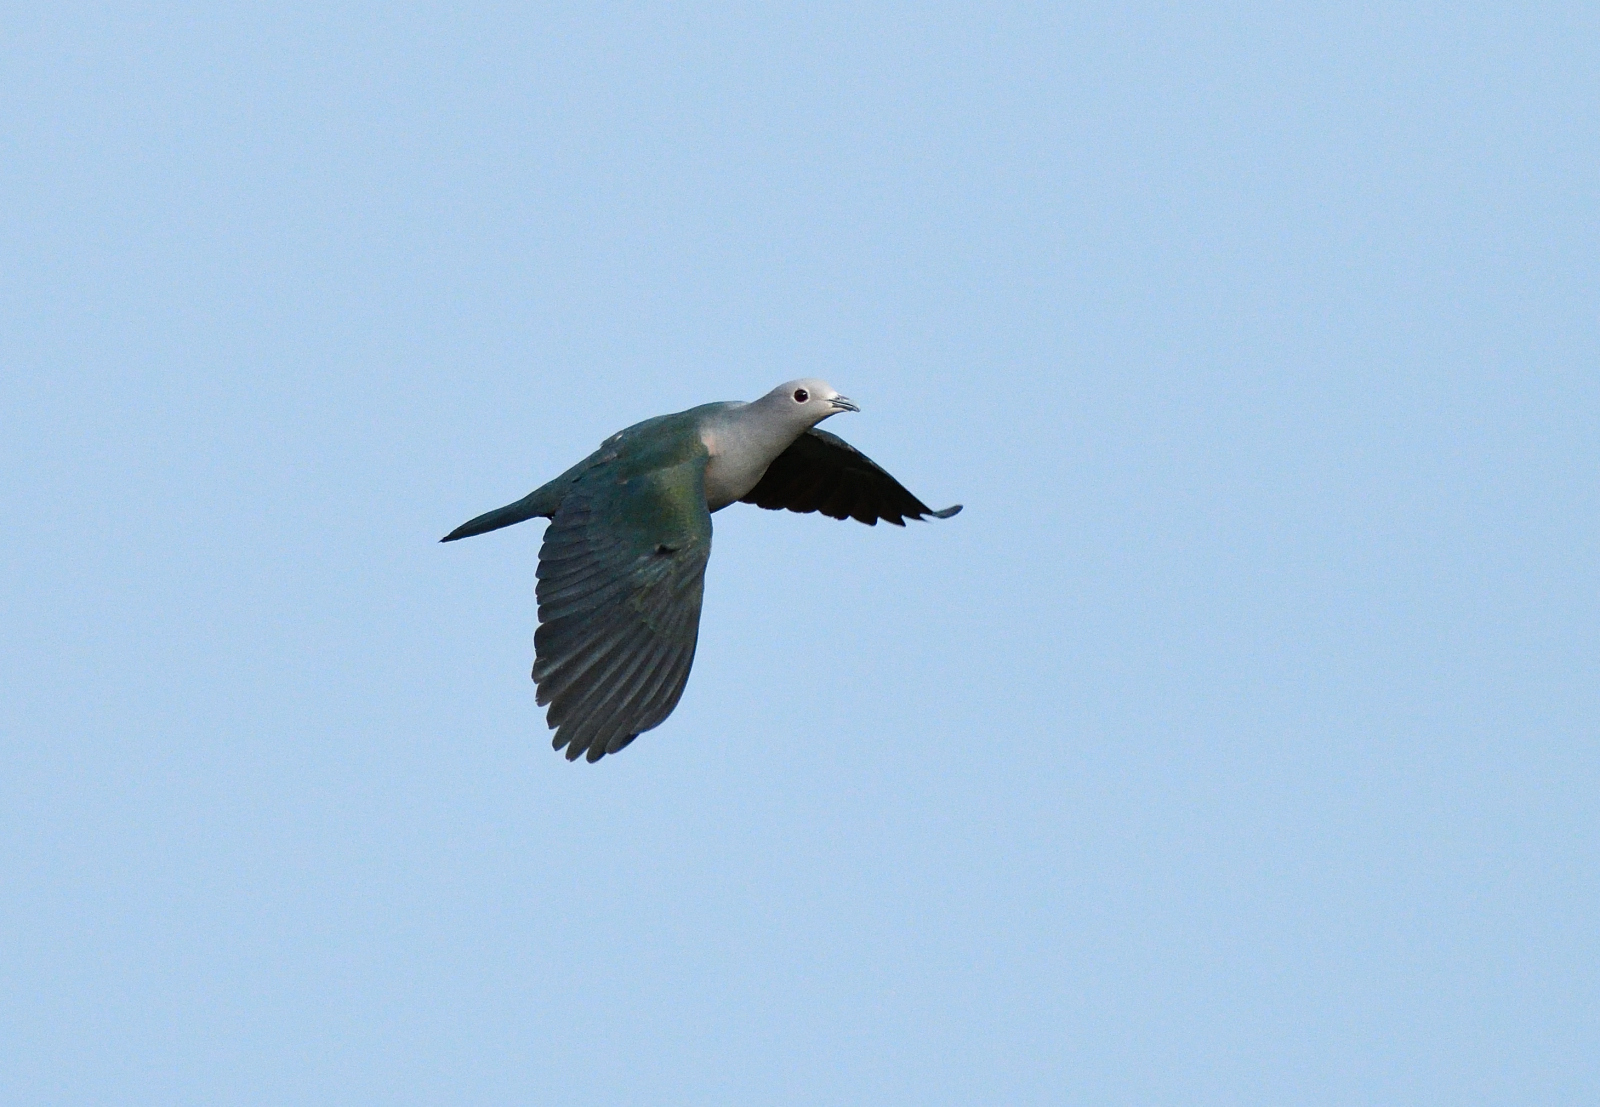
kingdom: Animalia
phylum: Chordata
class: Aves
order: Columbiformes
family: Columbidae
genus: Ducula
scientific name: Ducula aenea
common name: Green imperial pigeon
